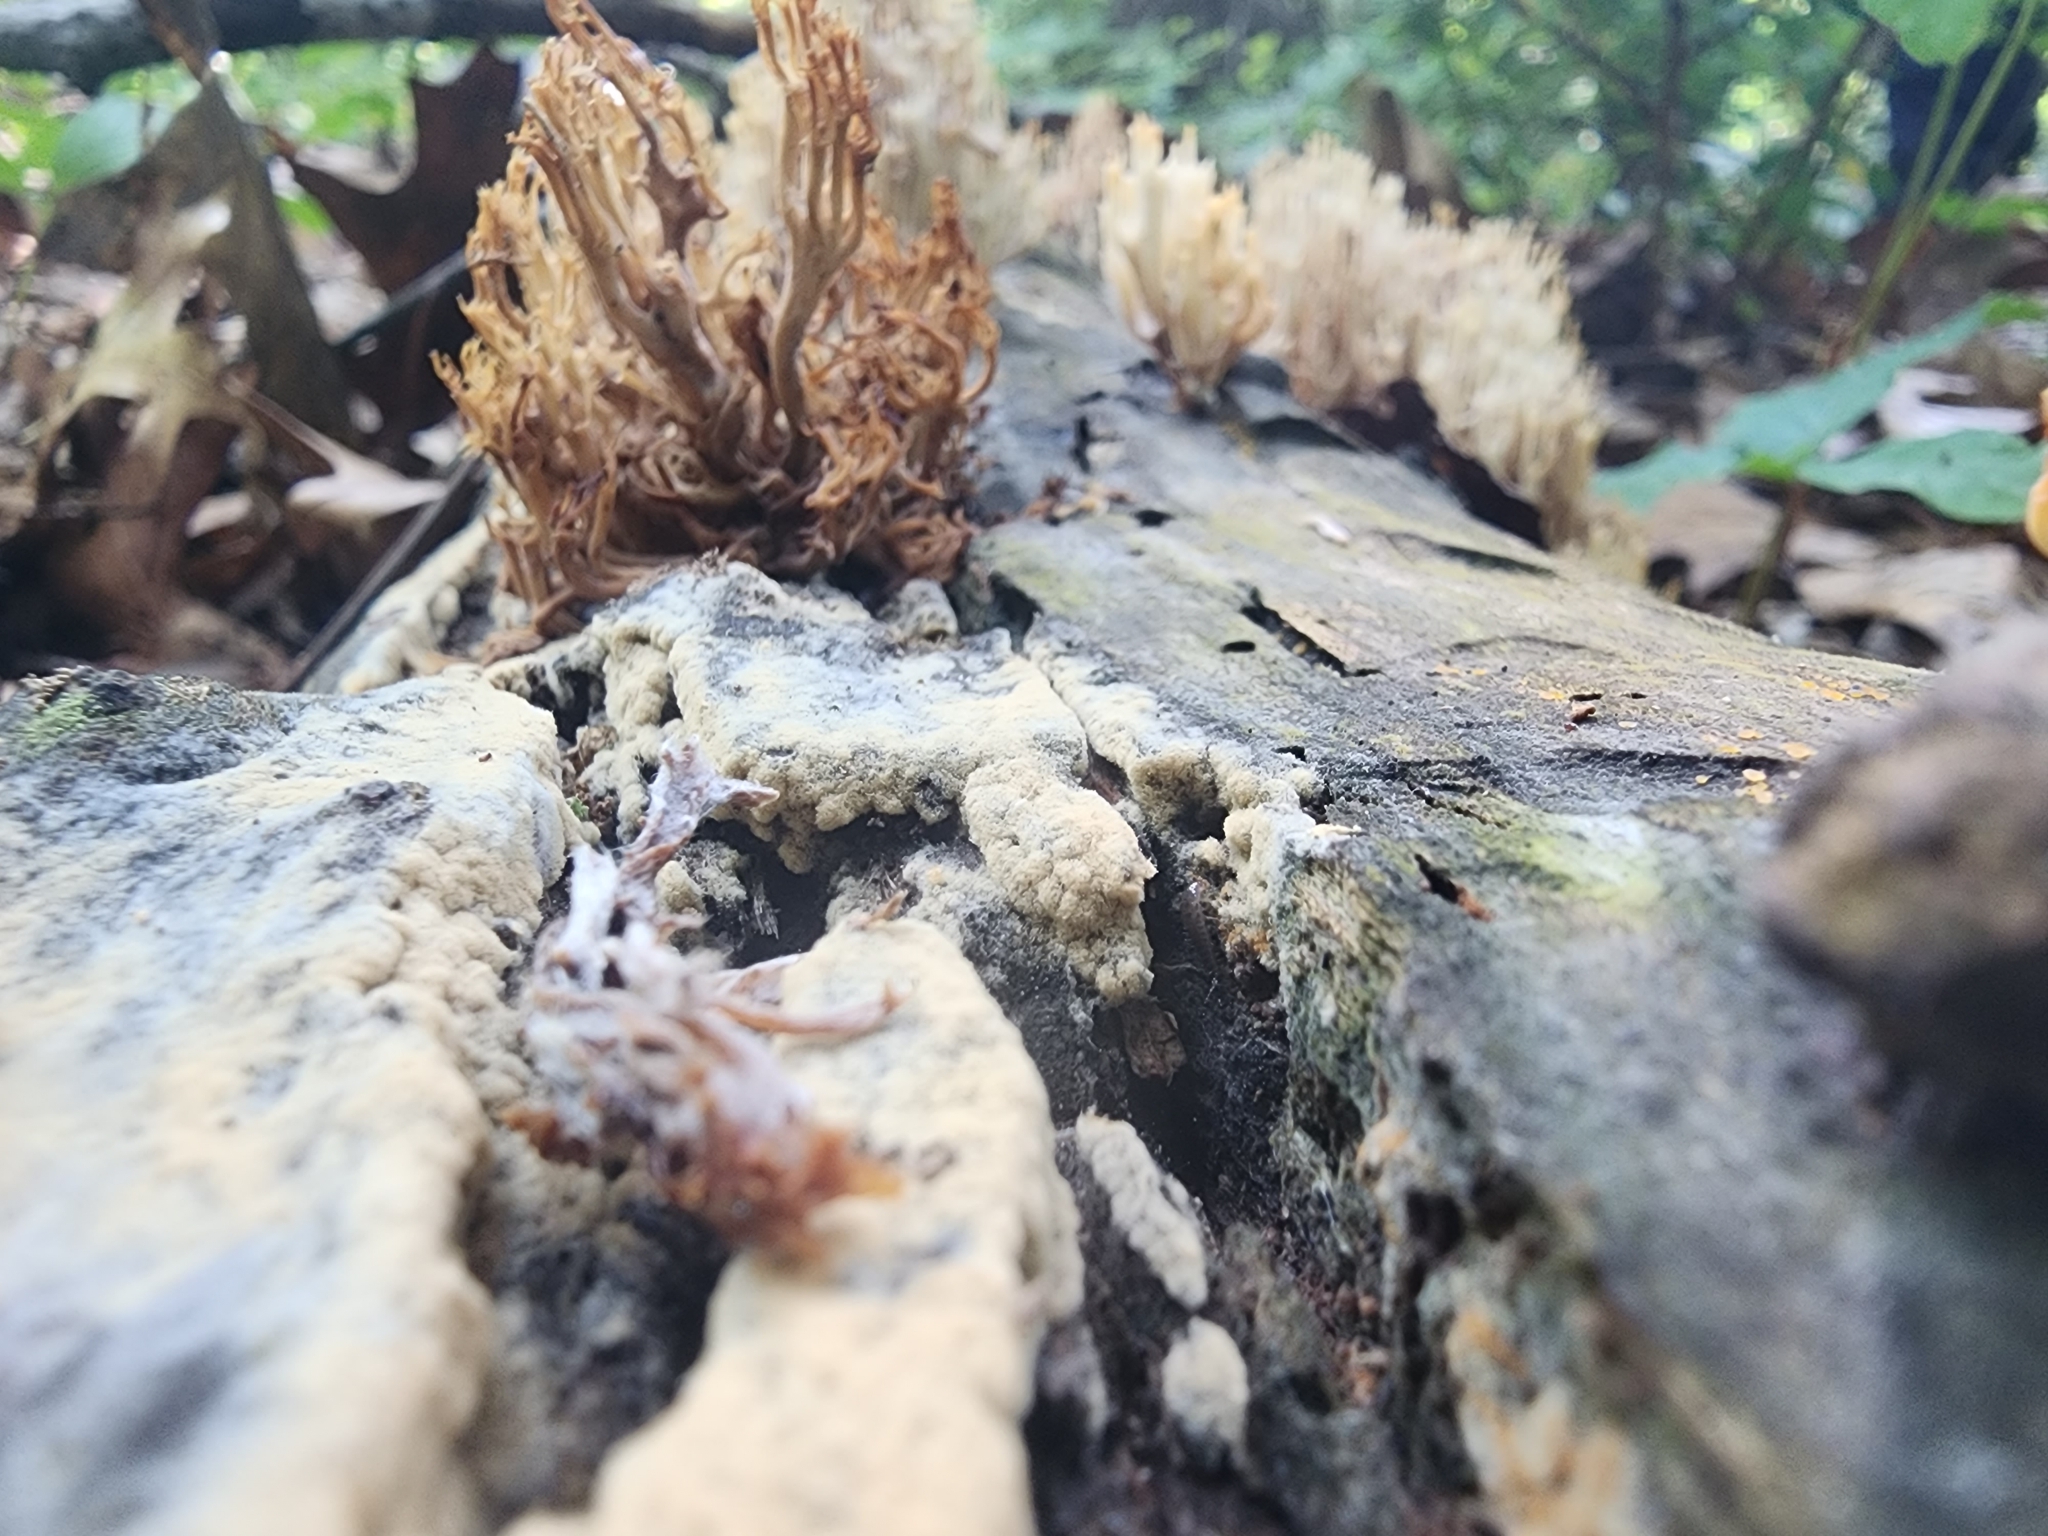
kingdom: Fungi
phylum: Basidiomycota
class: Agaricomycetes
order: Russulales
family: Auriscalpiaceae
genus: Artomyces
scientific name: Artomyces pyxidatus
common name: Crown-tipped coral fungus
